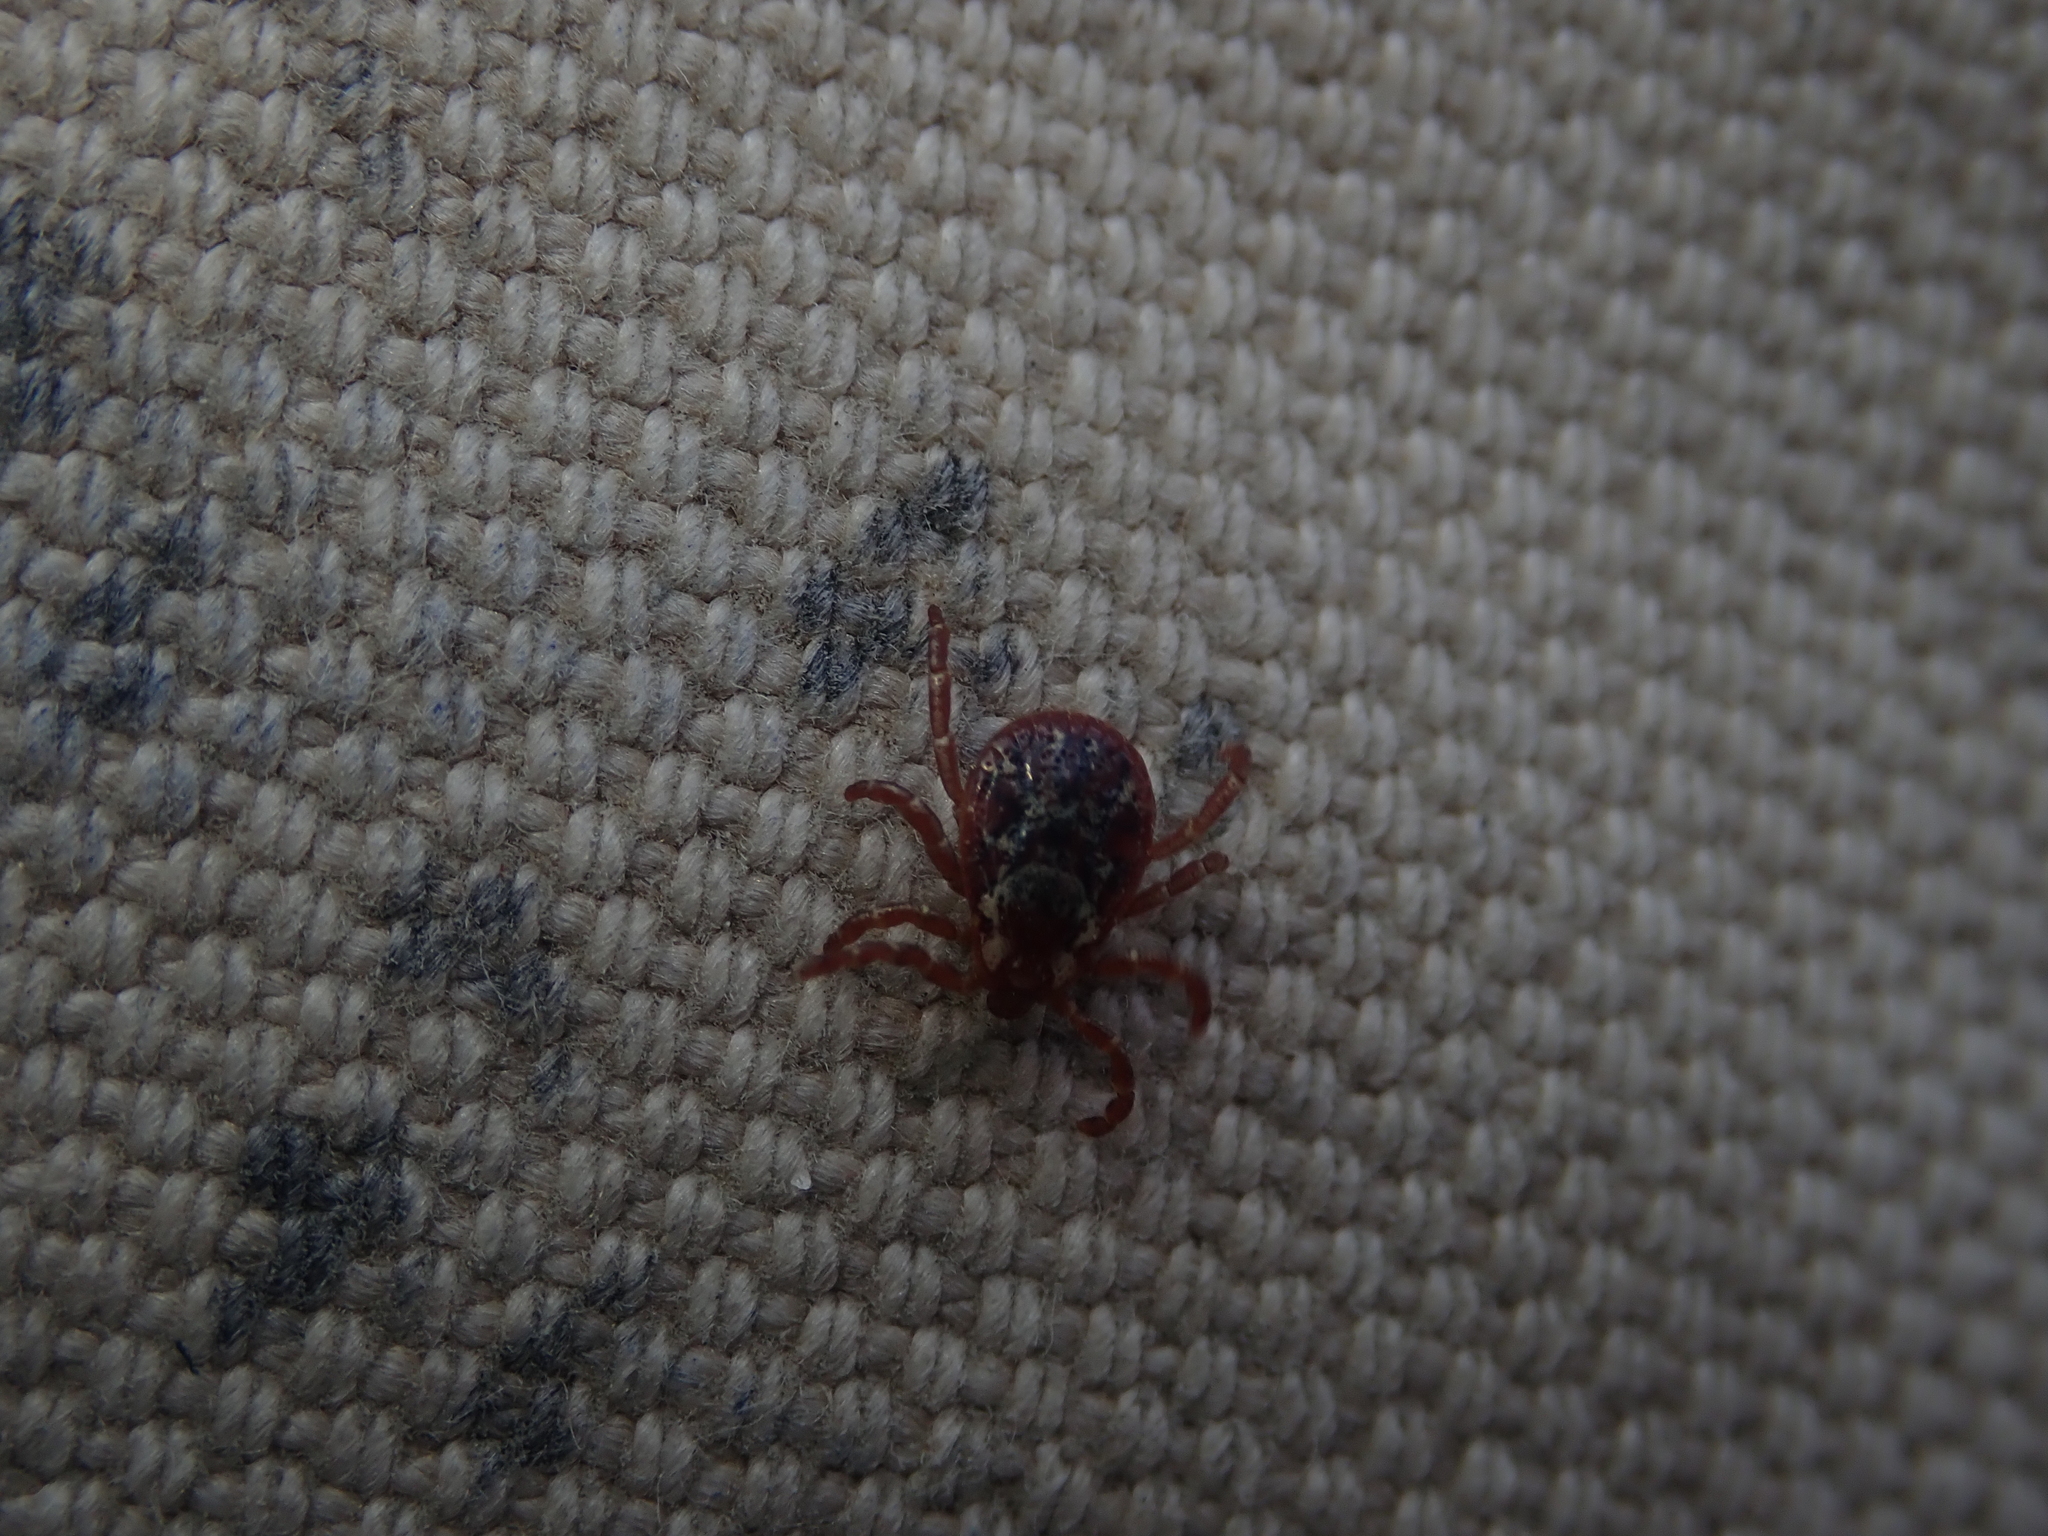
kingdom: Animalia
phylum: Arthropoda
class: Arachnida
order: Ixodida
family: Ixodidae
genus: Dermacentor
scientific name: Dermacentor variabilis
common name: American dog tick
